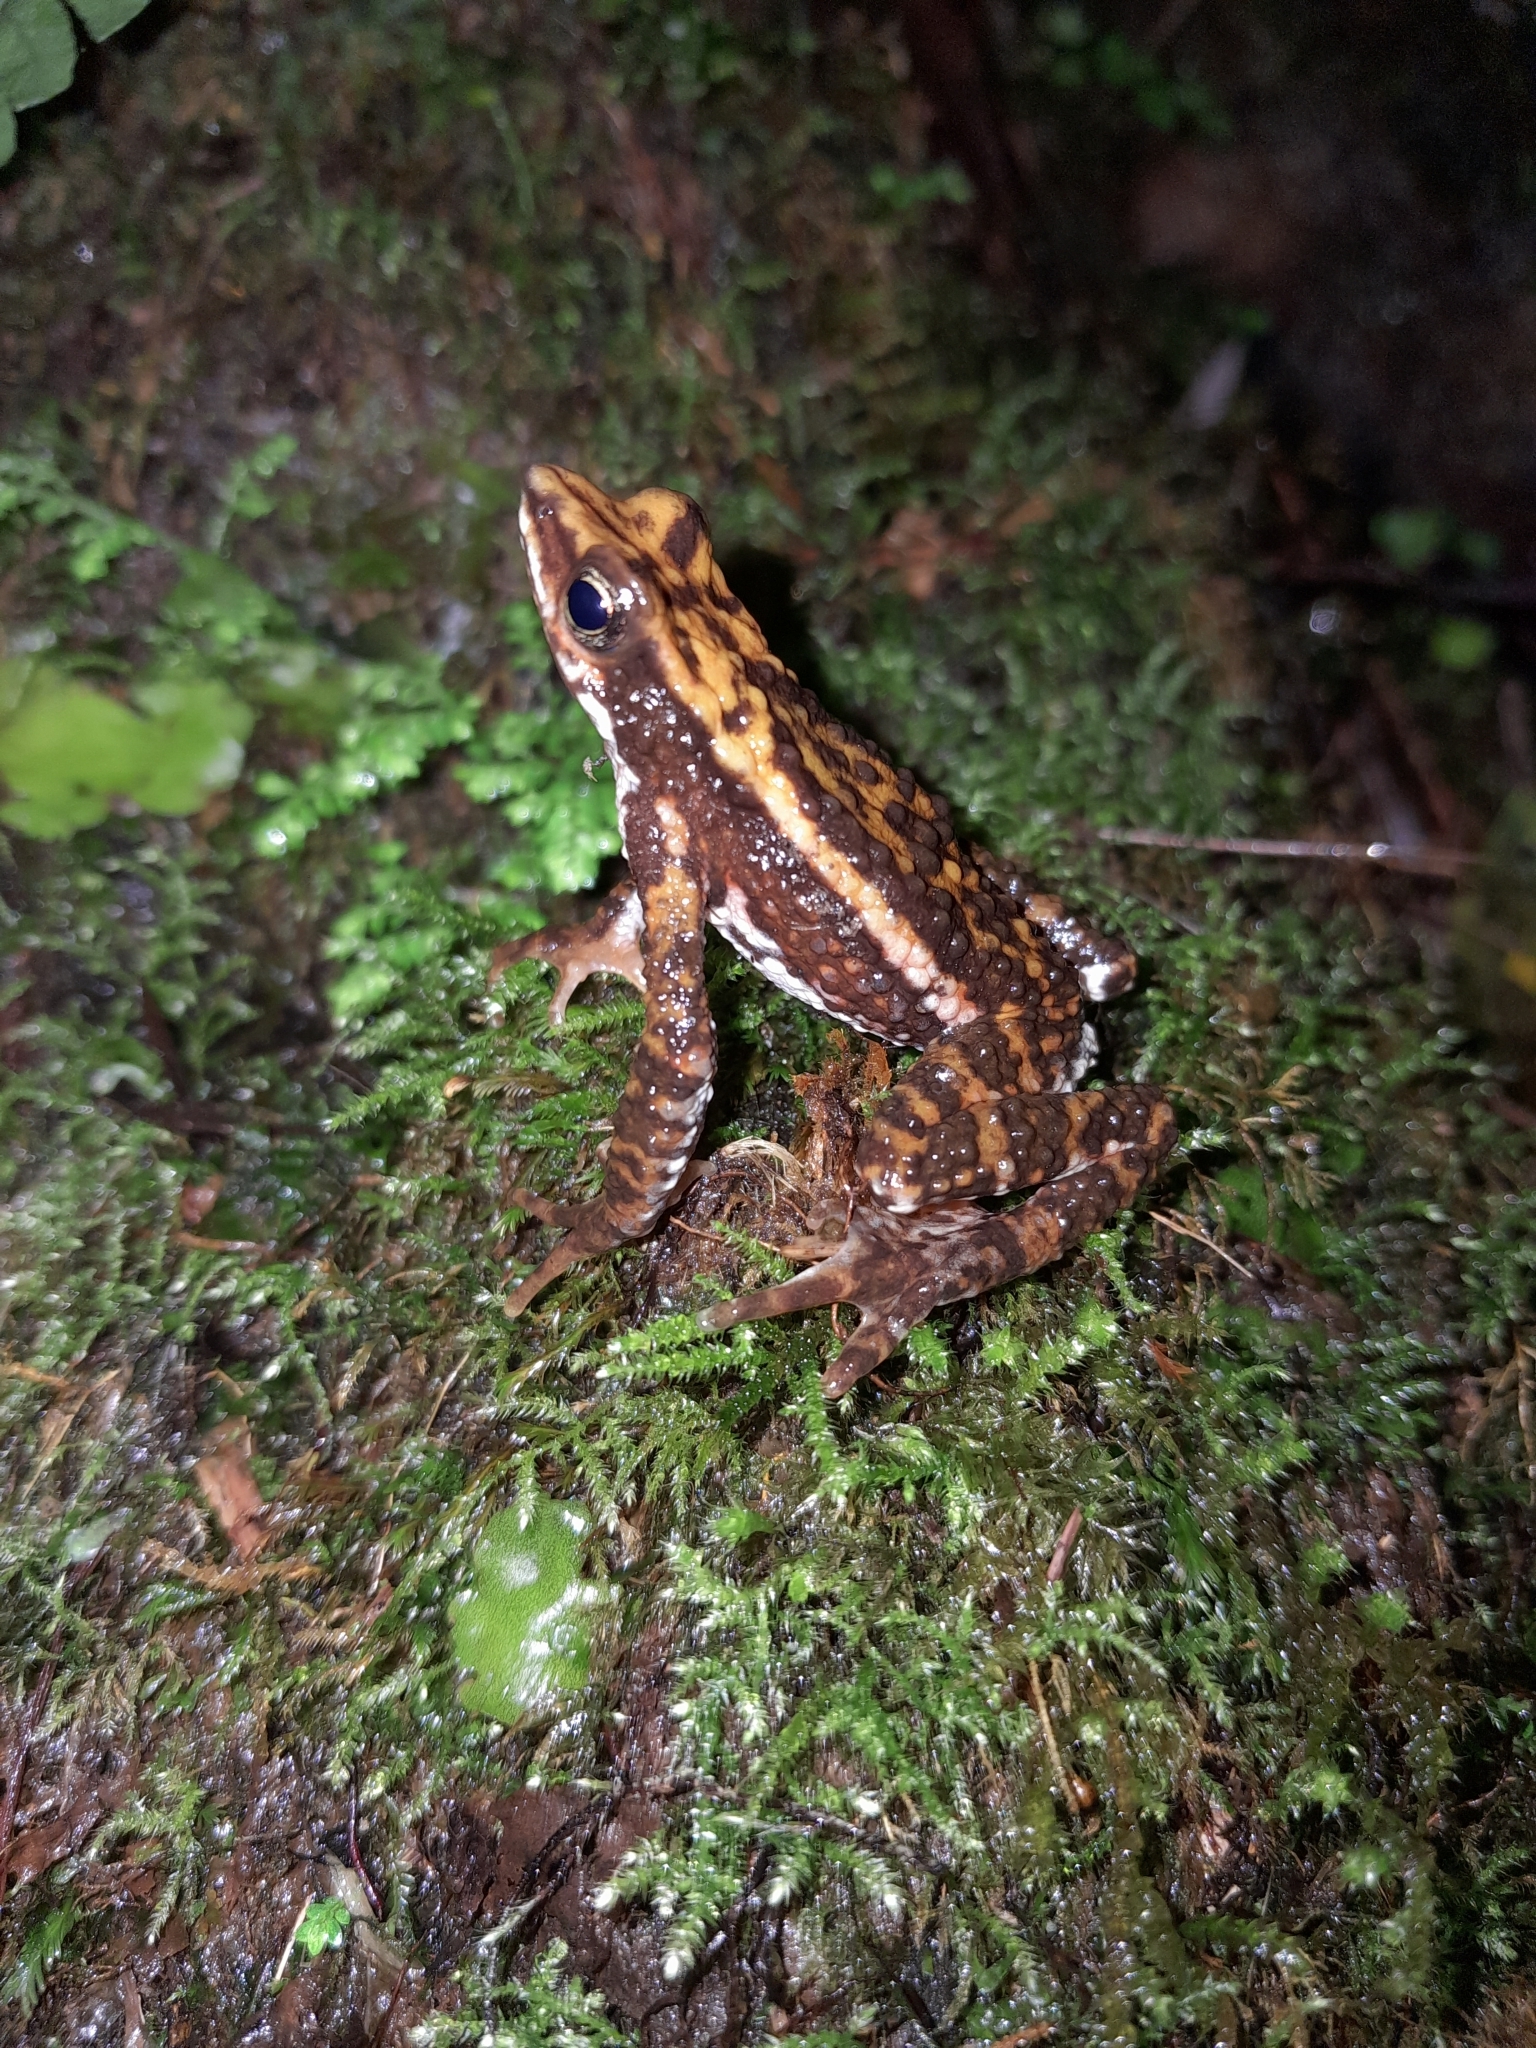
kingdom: Animalia
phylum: Chordata
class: Amphibia
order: Anura
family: Bufonidae
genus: Atelopus
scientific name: Atelopus laetissimus
